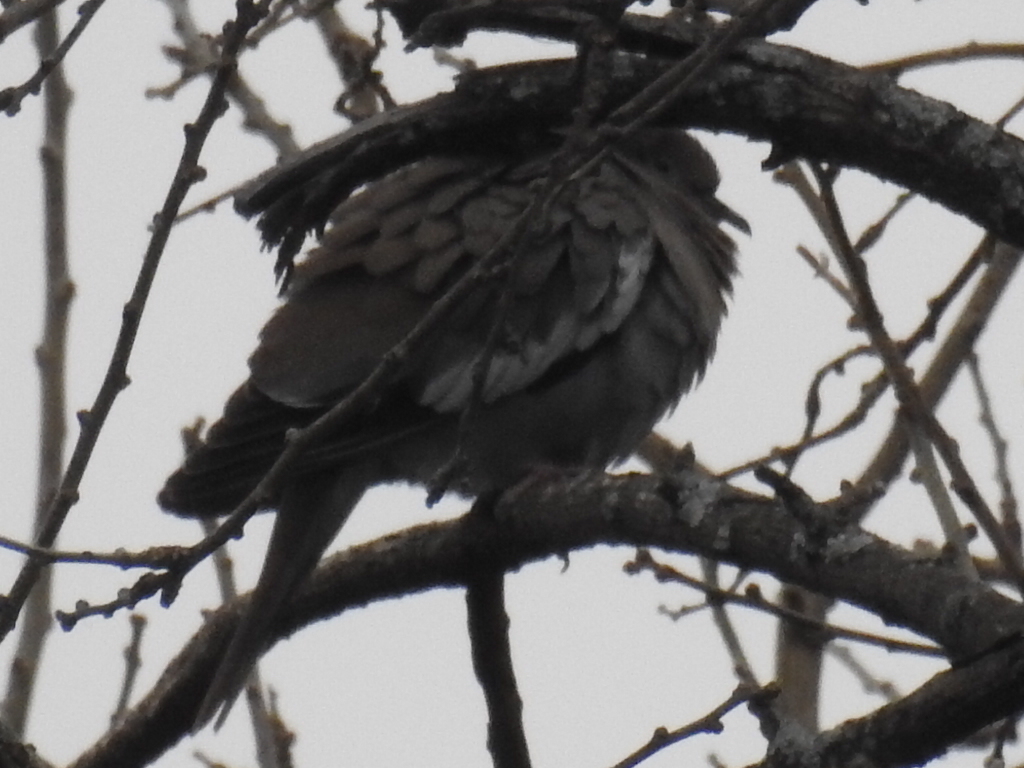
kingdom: Animalia
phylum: Chordata
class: Aves
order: Columbiformes
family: Columbidae
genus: Zenaida
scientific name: Zenaida asiatica
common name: White-winged dove
